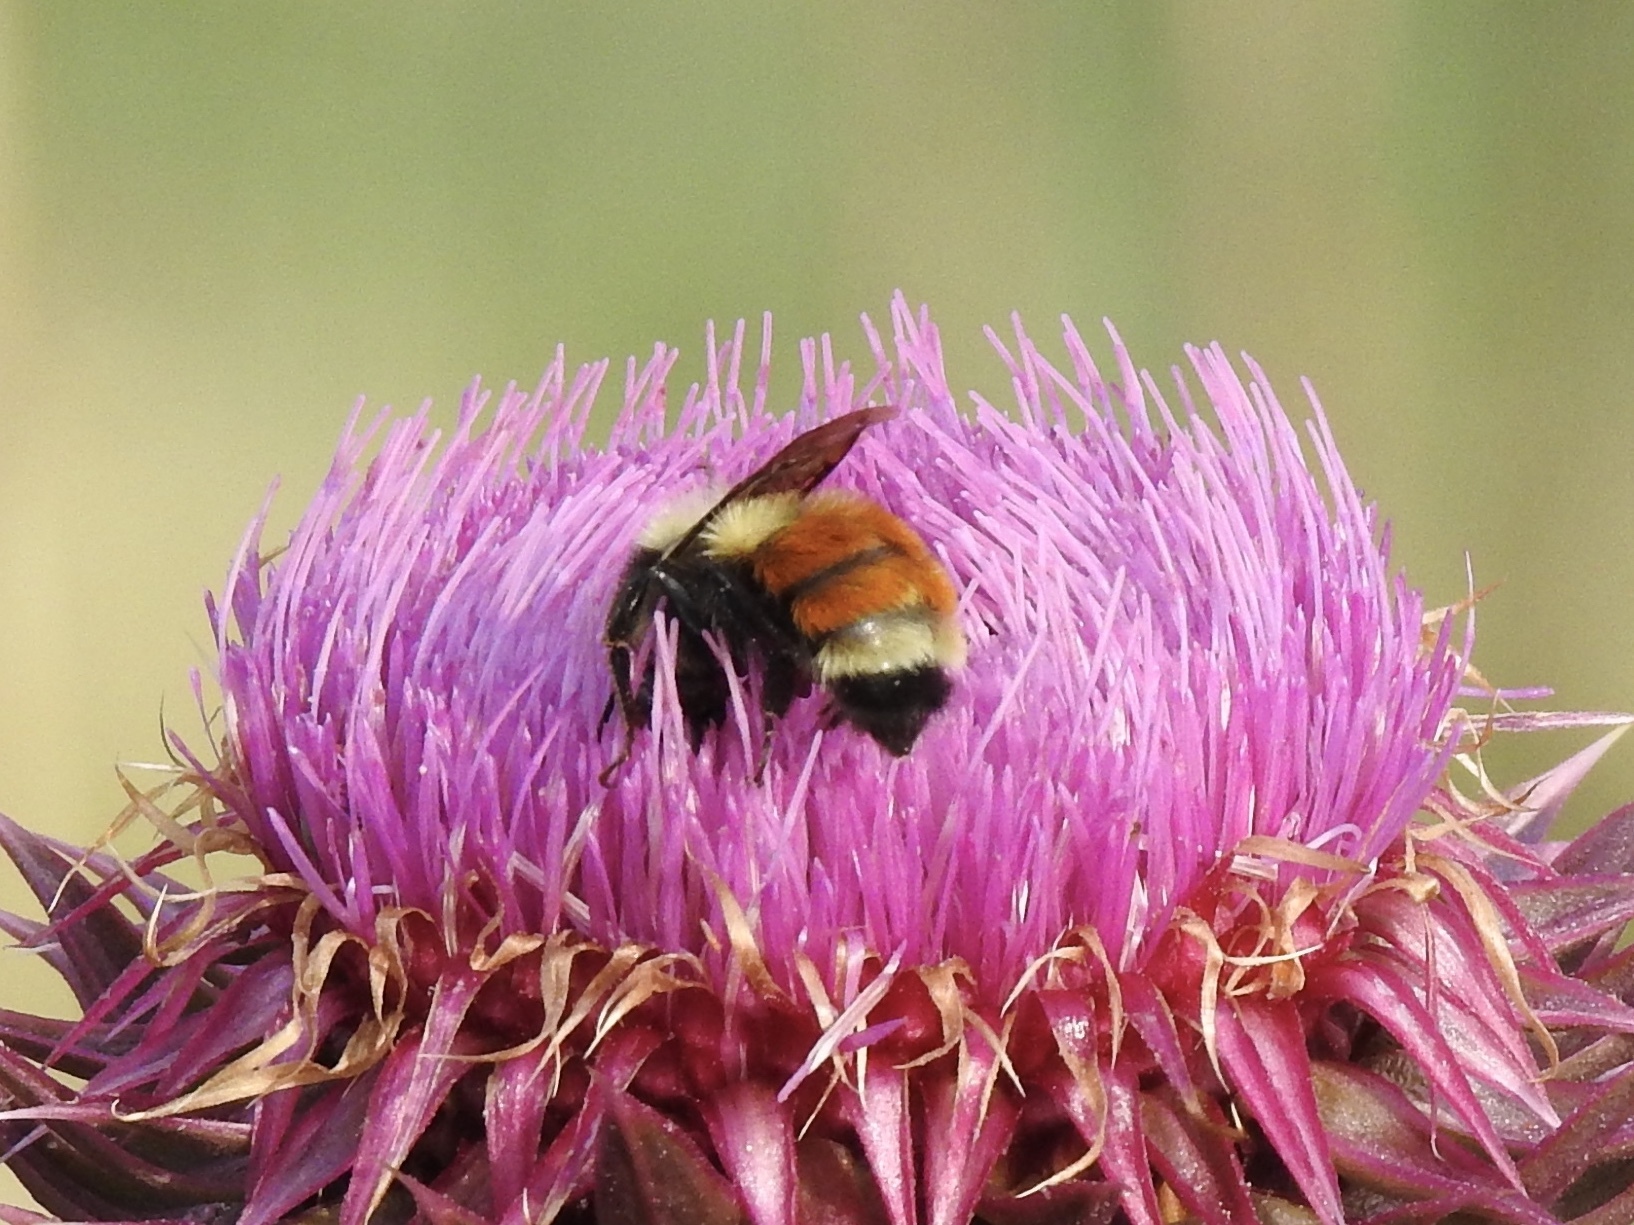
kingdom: Animalia
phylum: Arthropoda
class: Insecta
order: Hymenoptera
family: Apidae
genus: Bombus
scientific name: Bombus huntii
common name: Hunt bumble bee
